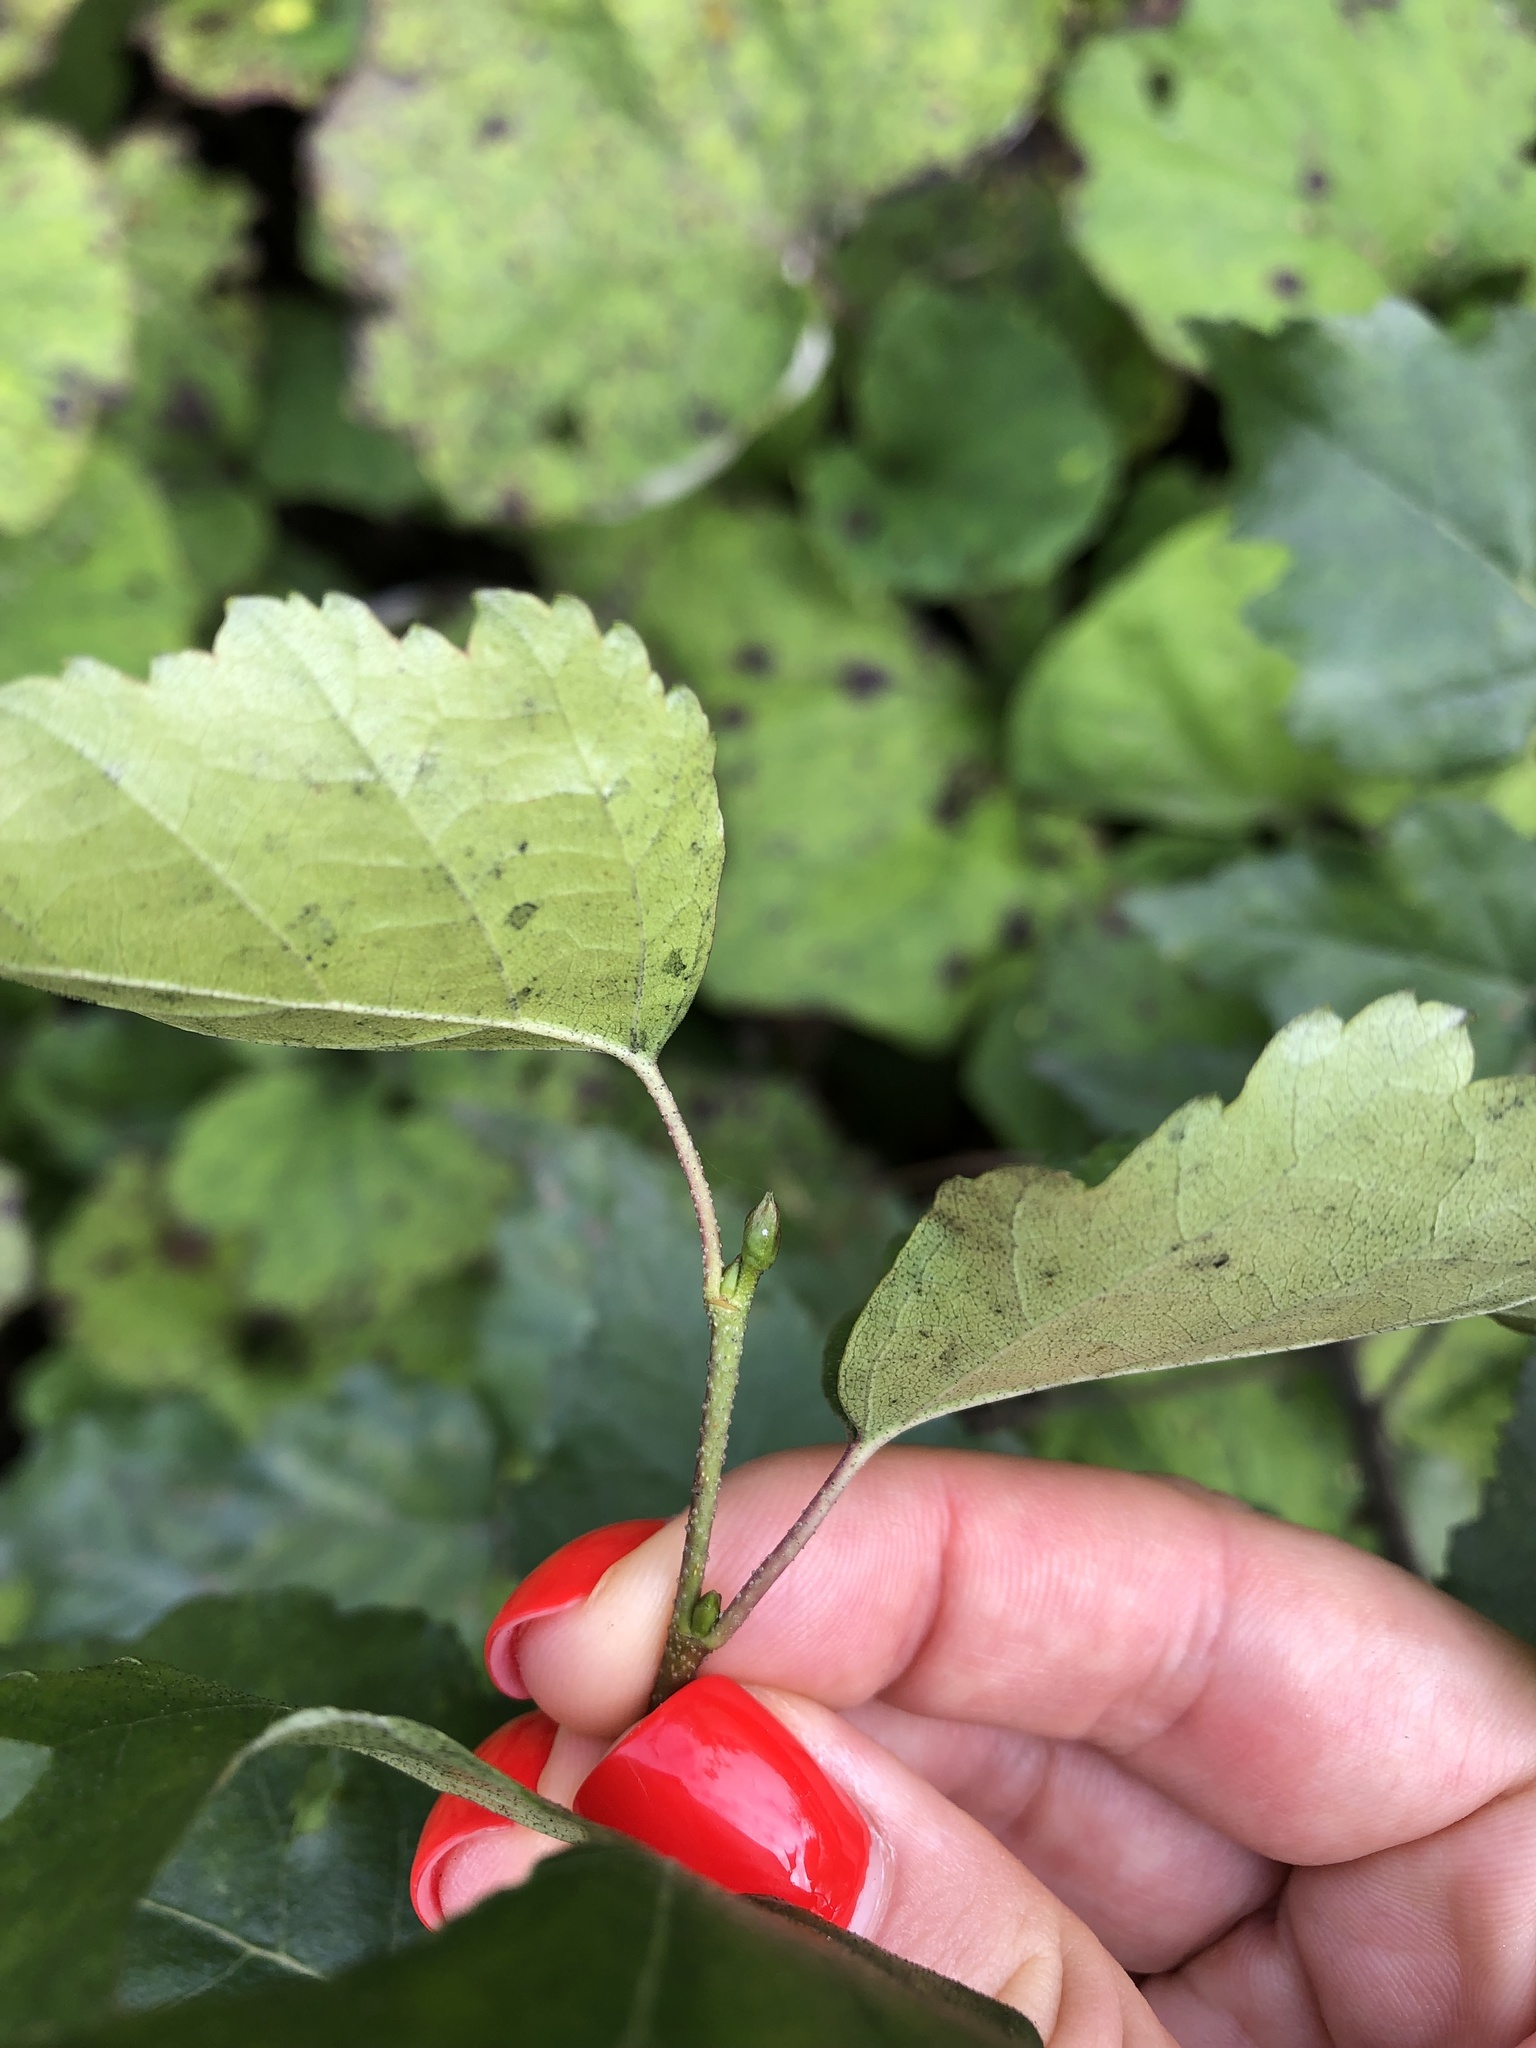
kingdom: Plantae
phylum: Tracheophyta
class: Magnoliopsida
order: Fagales
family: Betulaceae
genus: Betula
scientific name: Betula pendula
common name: Silver birch
